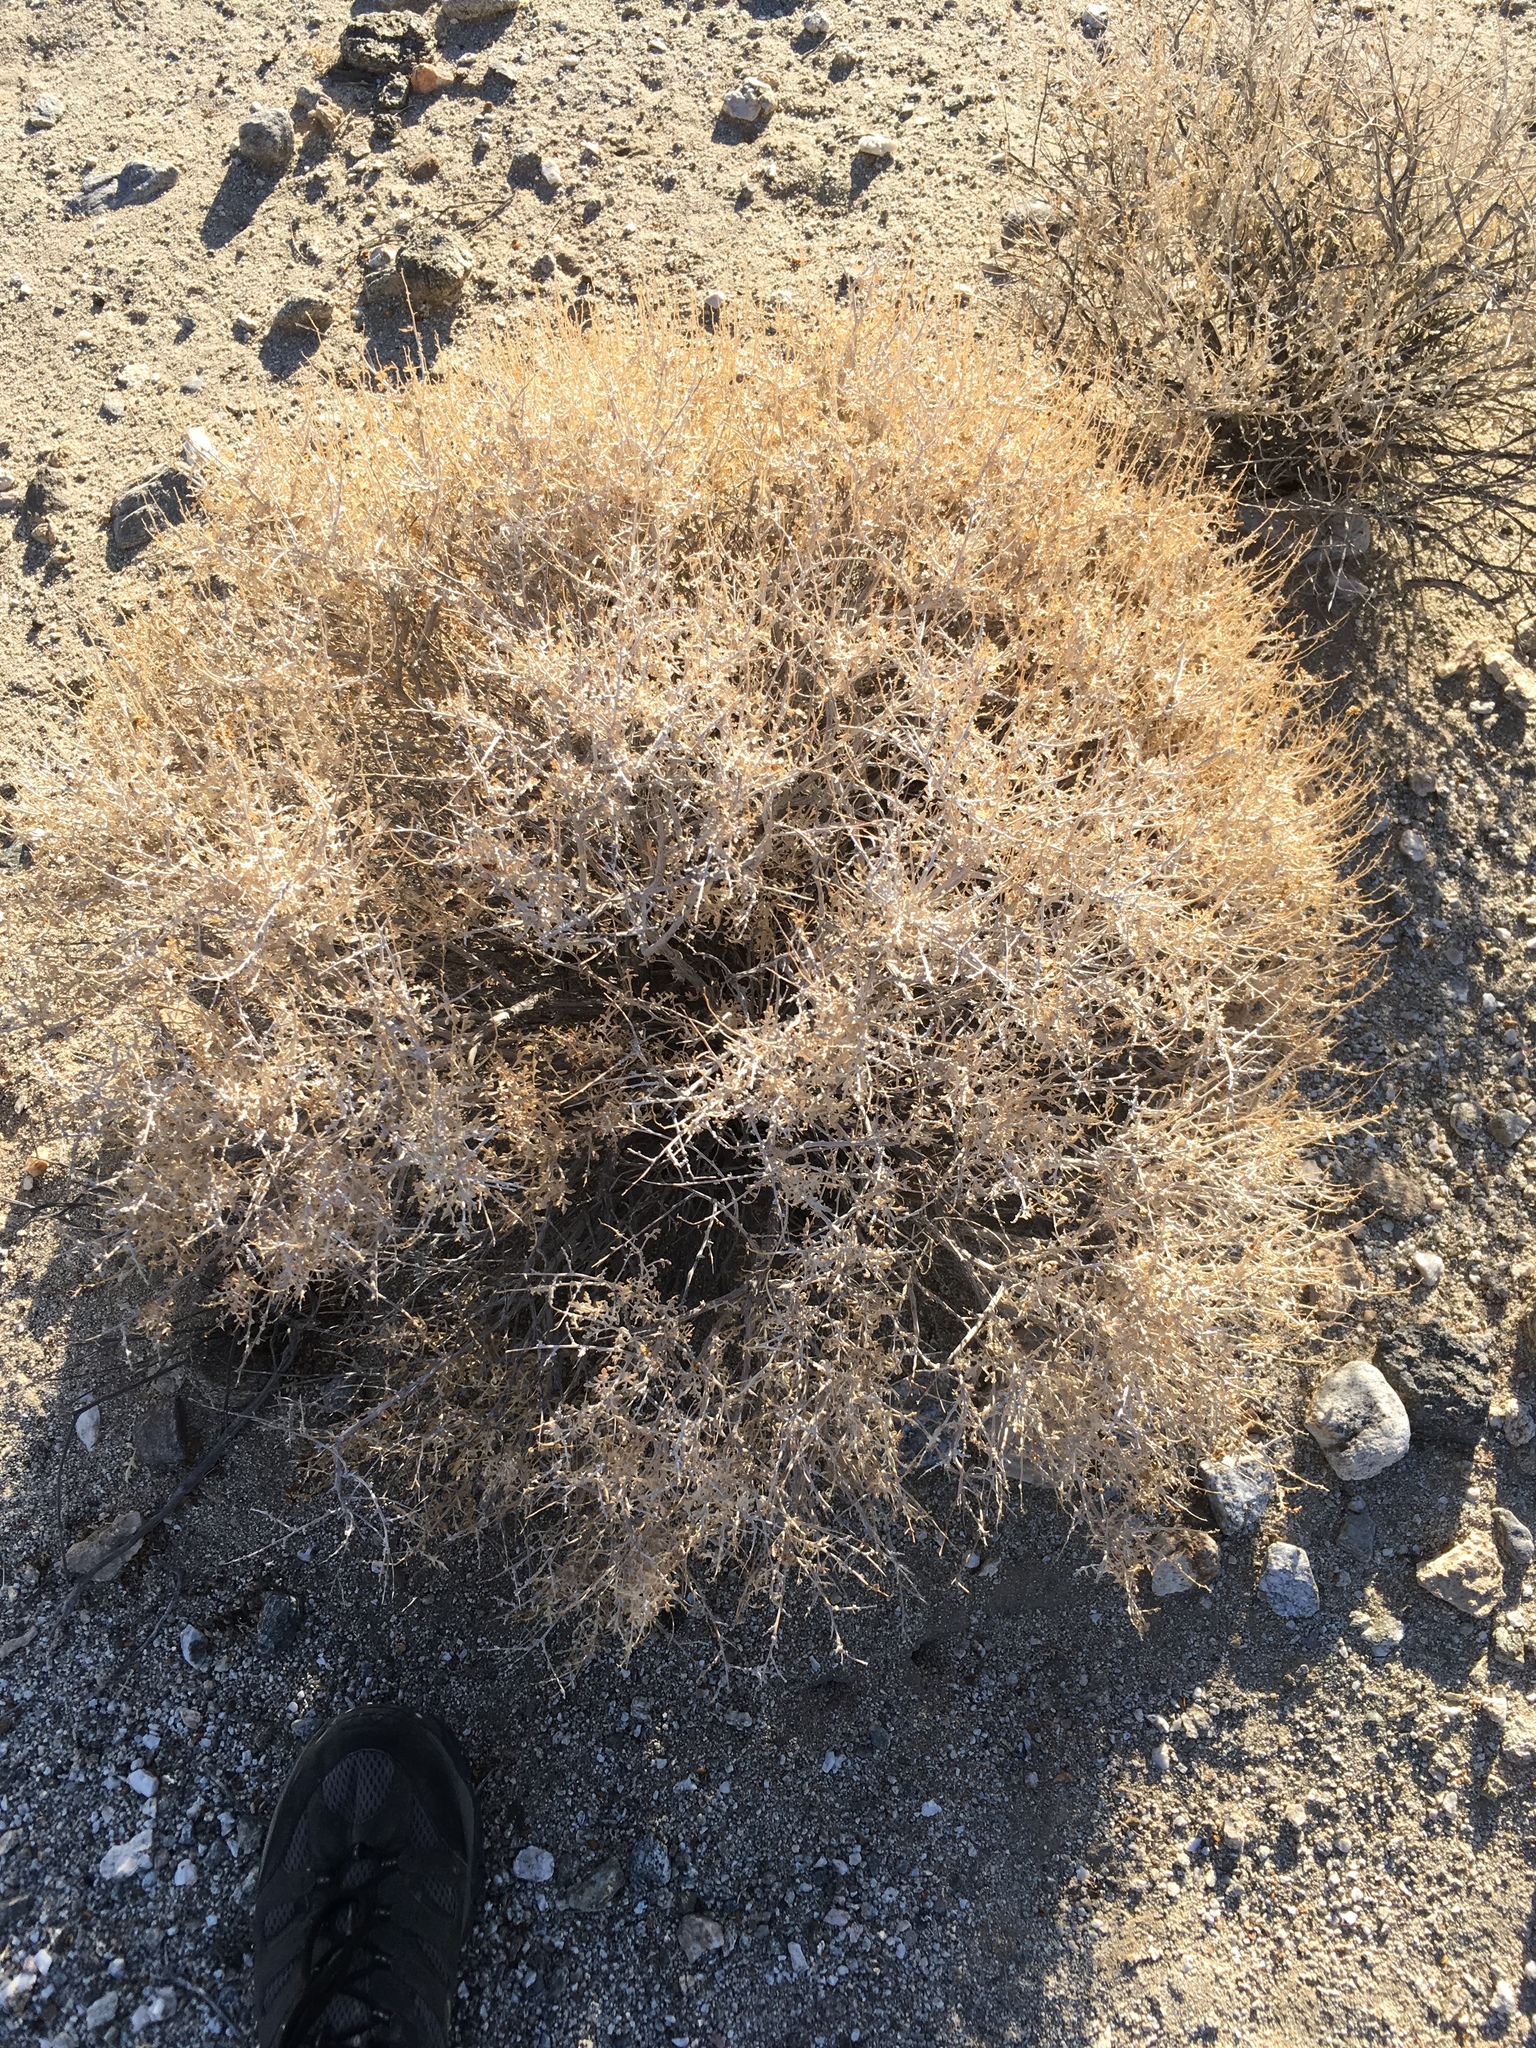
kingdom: Plantae
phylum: Tracheophyta
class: Magnoliopsida
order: Asterales
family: Asteraceae
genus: Ambrosia
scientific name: Ambrosia dumosa
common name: Bur-sage
